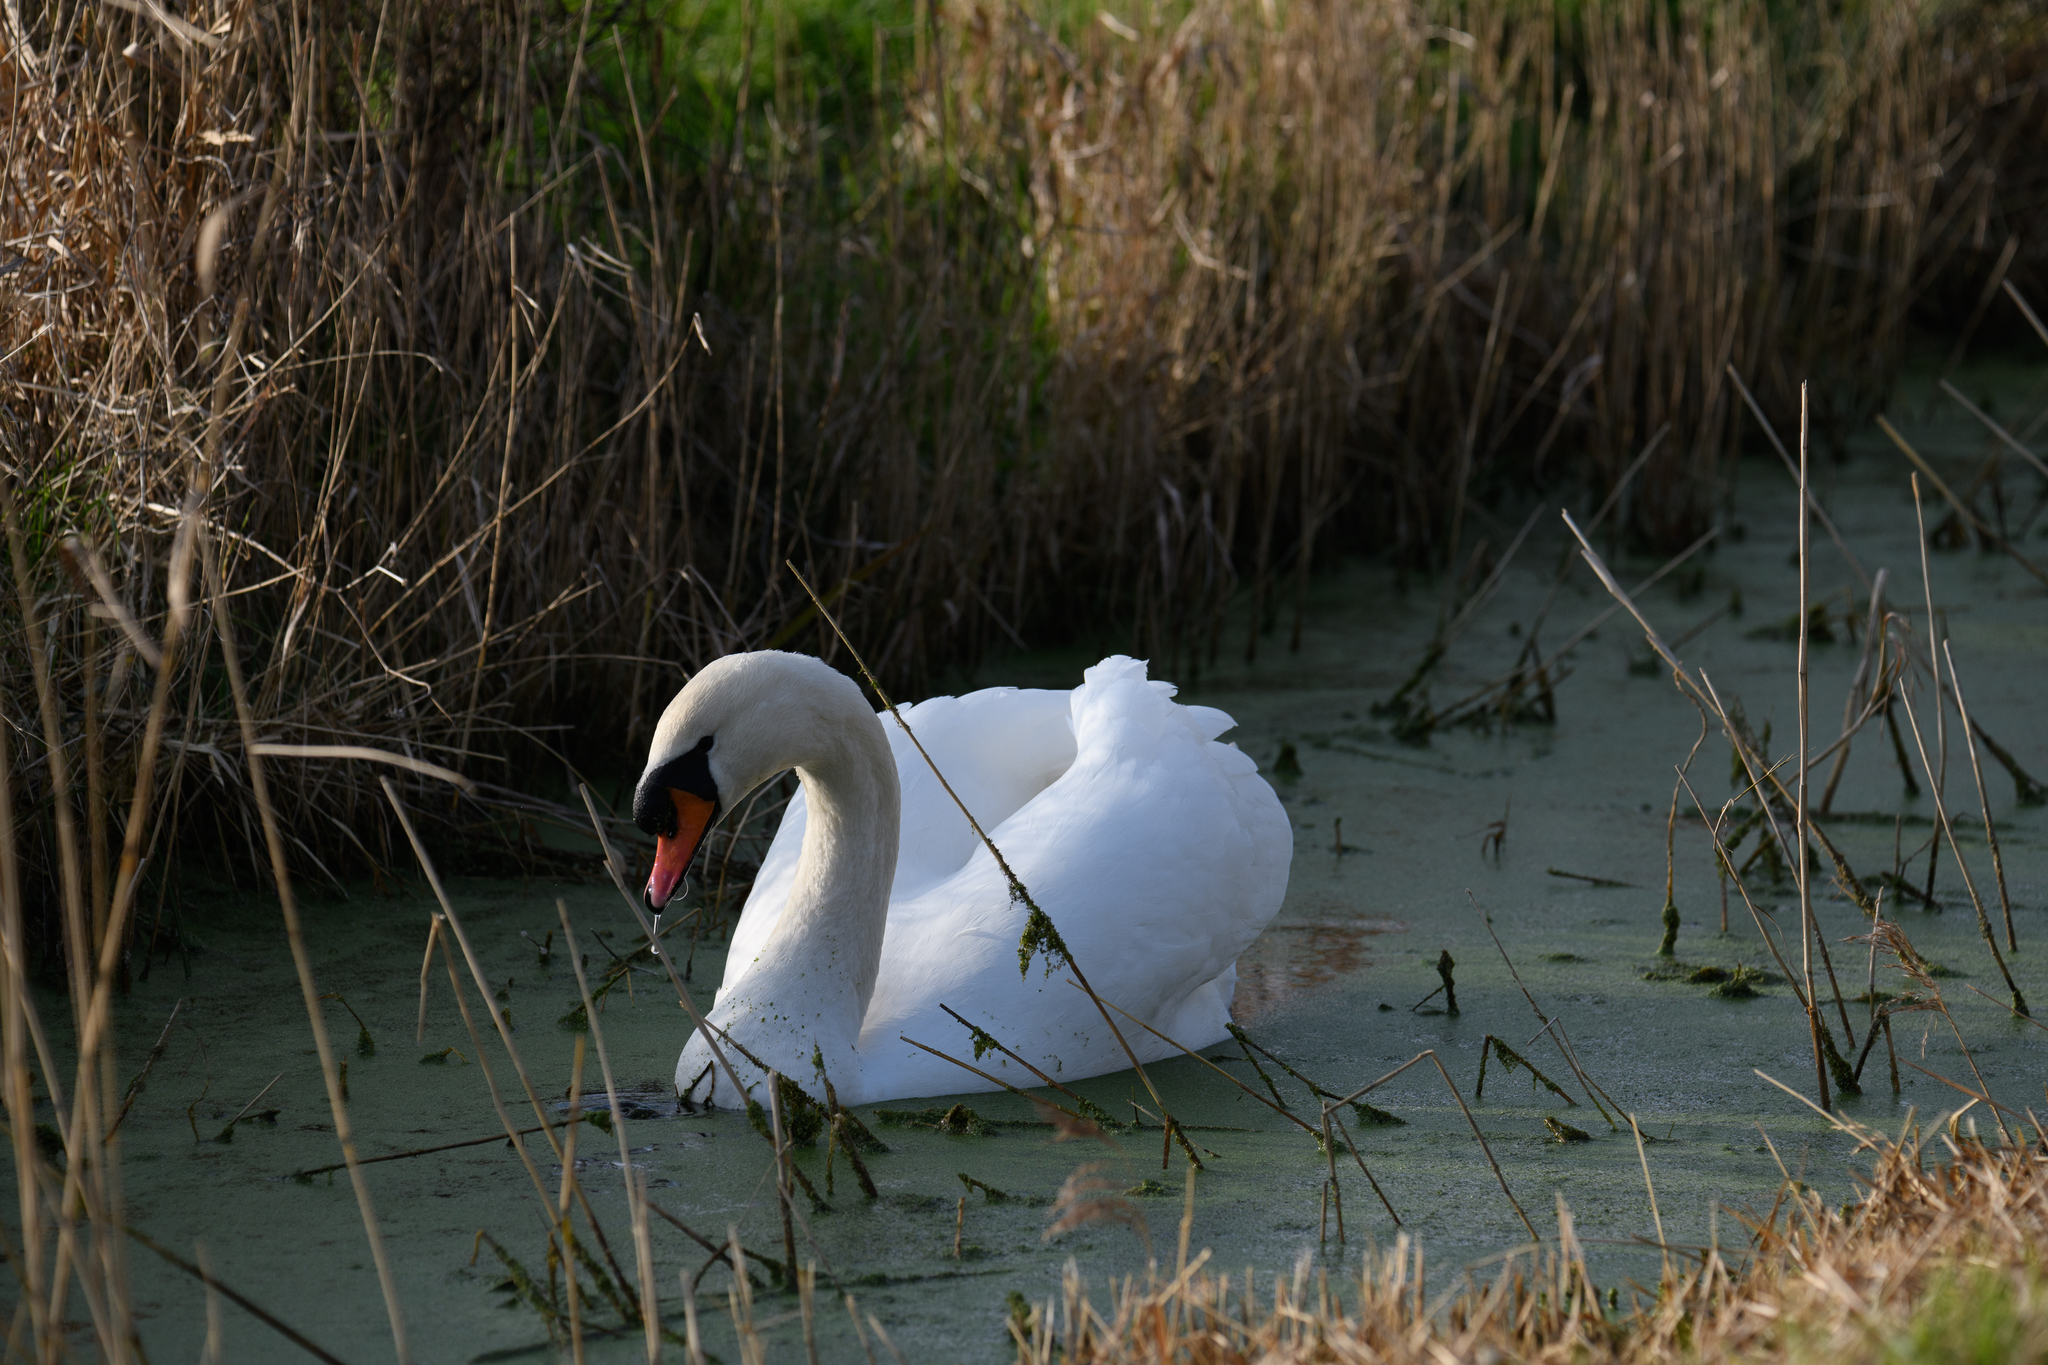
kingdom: Animalia
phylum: Chordata
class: Aves
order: Anseriformes
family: Anatidae
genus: Cygnus
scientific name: Cygnus olor
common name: Mute swan
